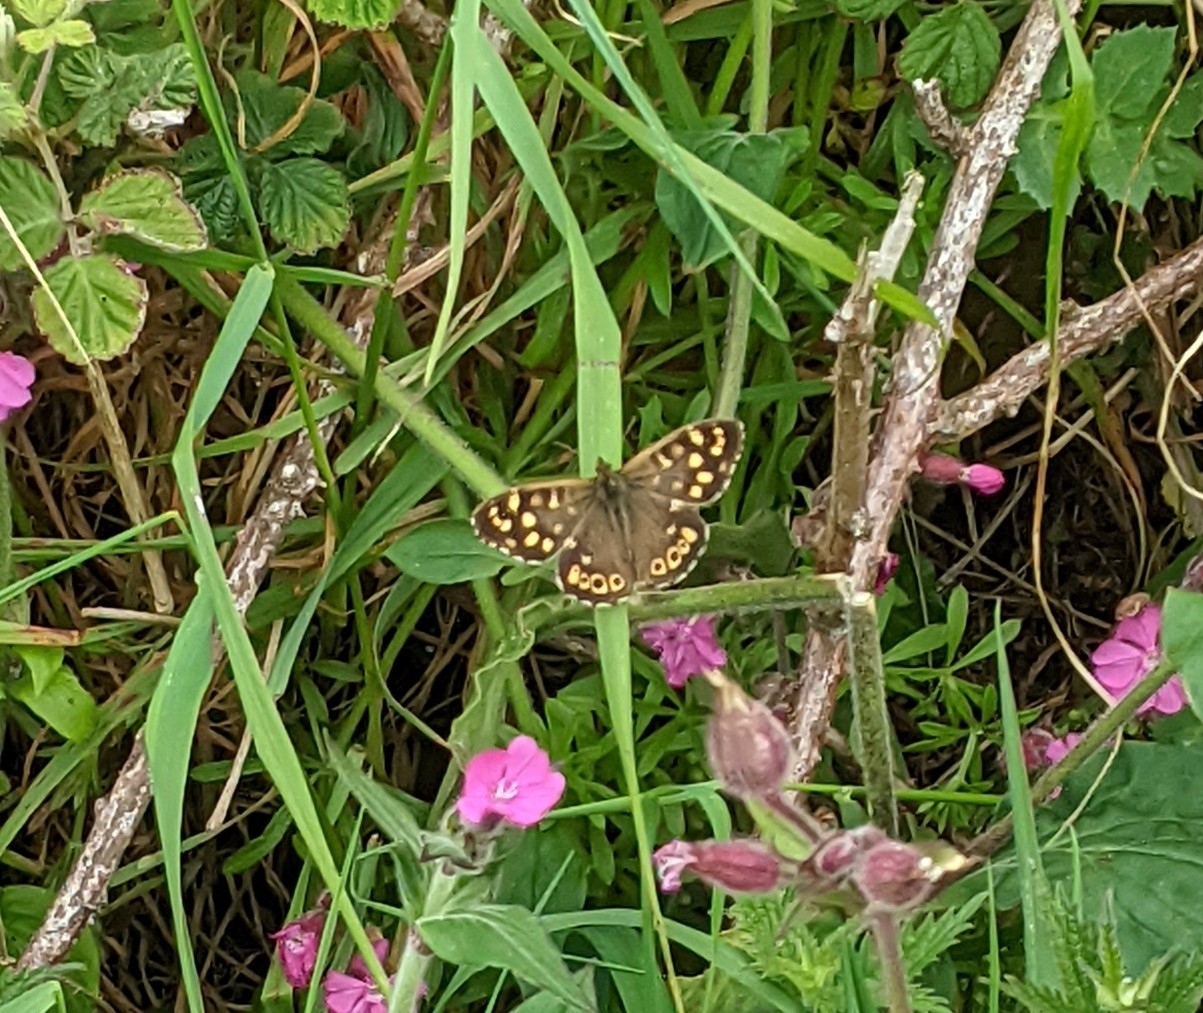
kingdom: Animalia
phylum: Arthropoda
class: Insecta
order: Lepidoptera
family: Nymphalidae
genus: Pararge
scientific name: Pararge aegeria
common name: Speckled wood
